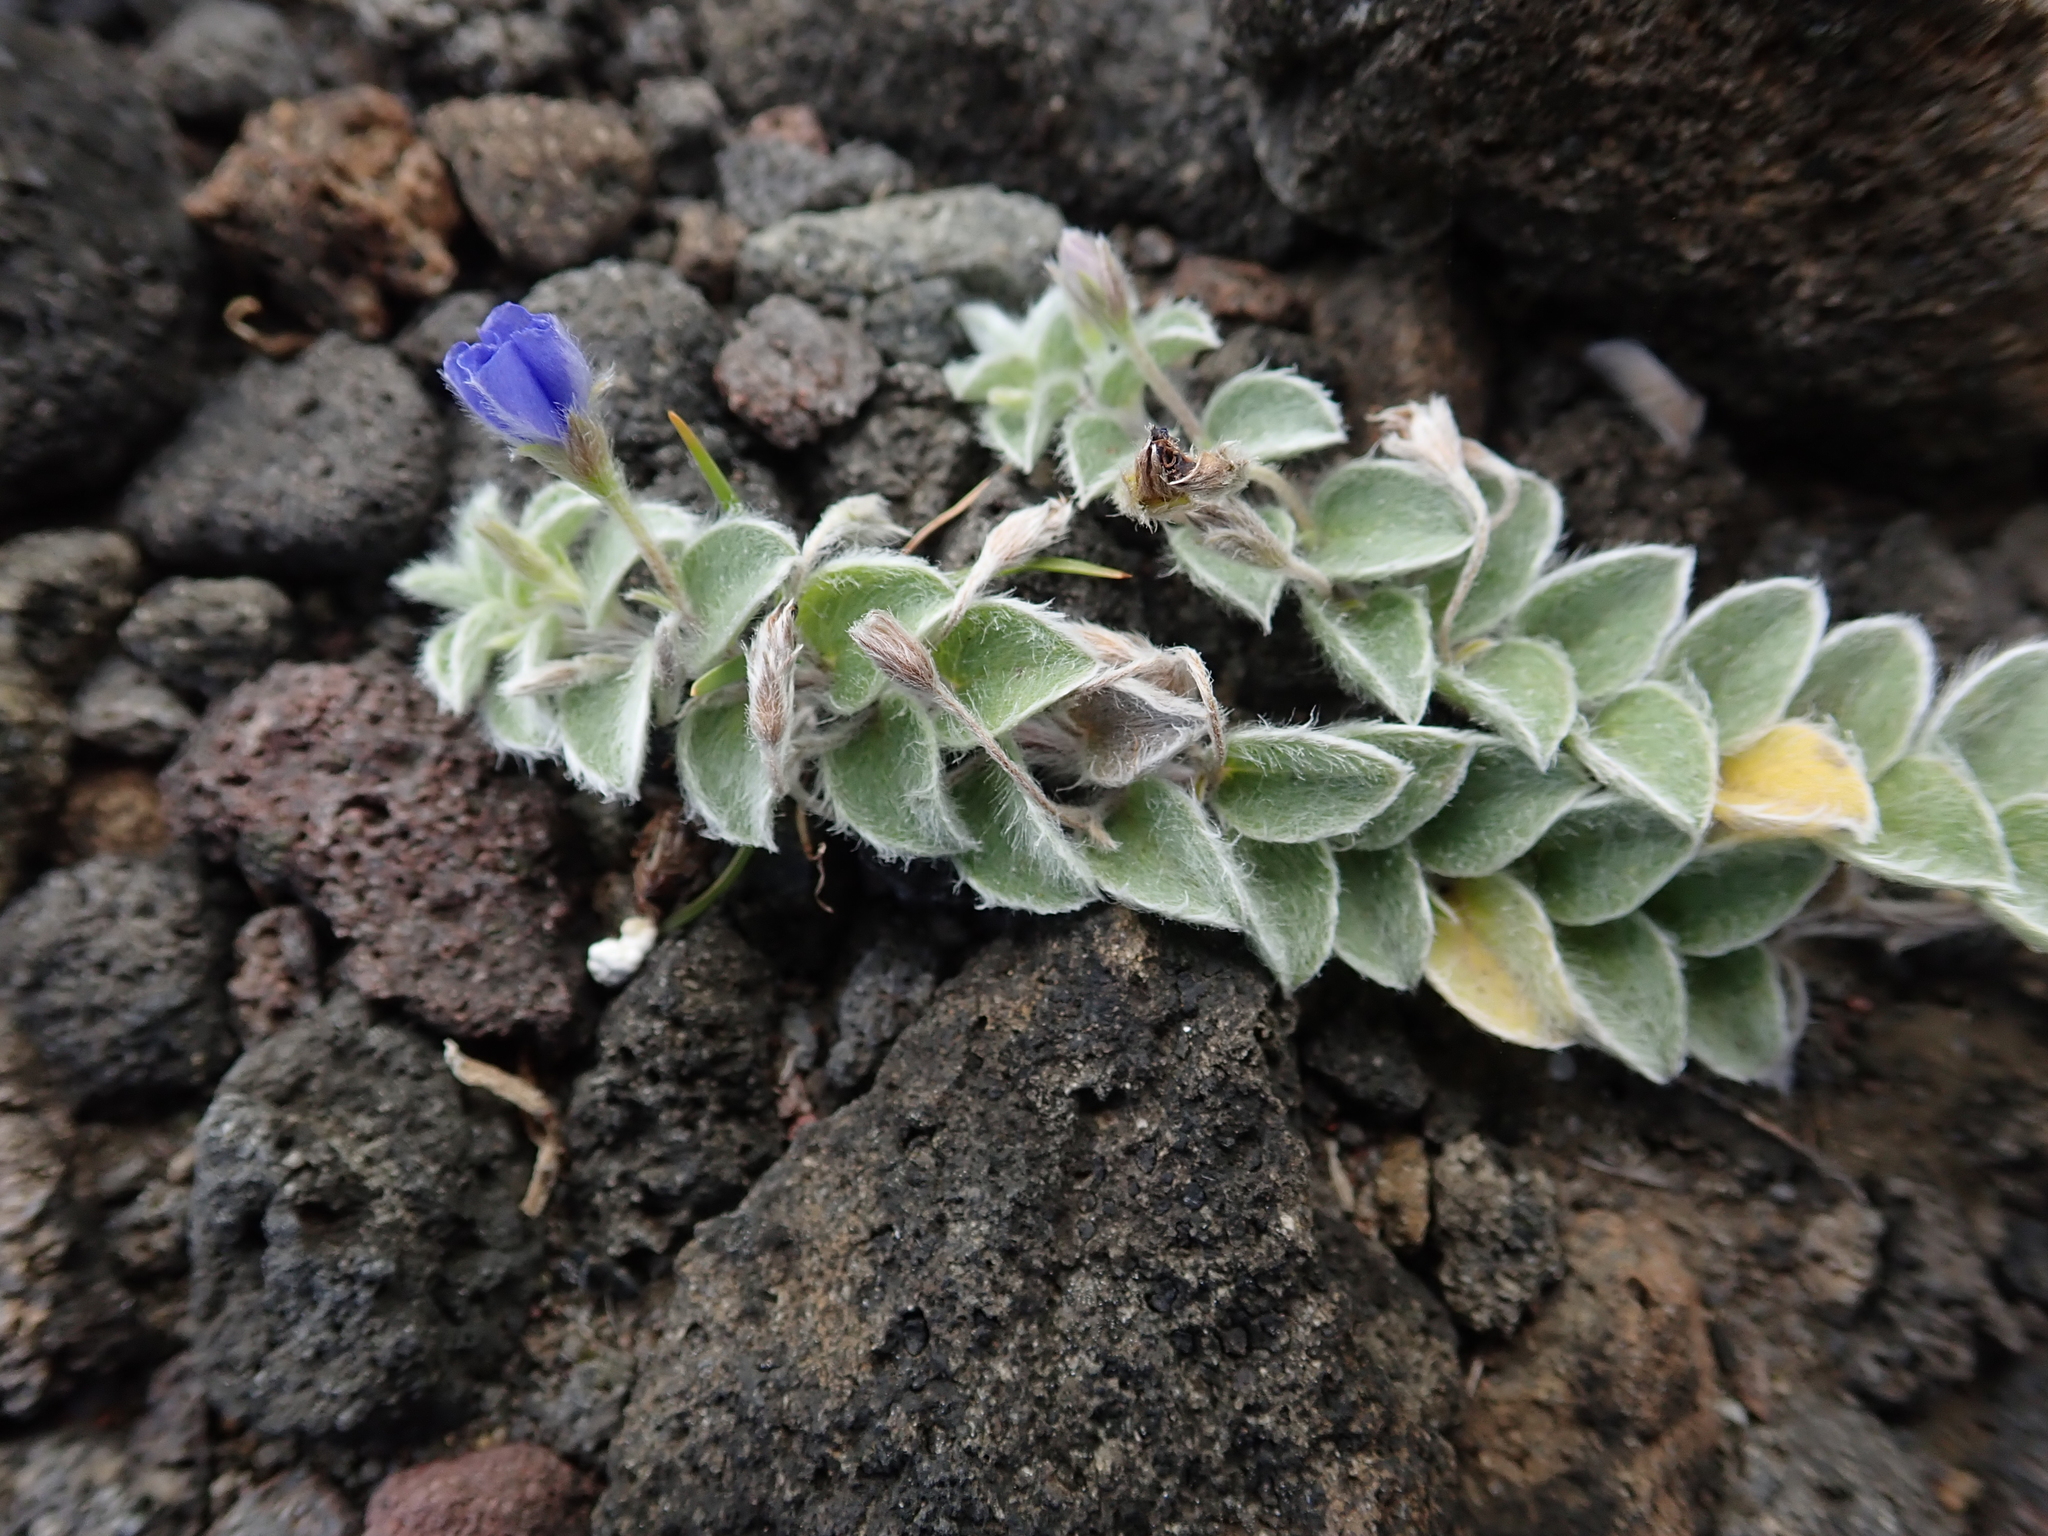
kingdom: Plantae
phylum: Tracheophyta
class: Magnoliopsida
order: Solanales
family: Convolvulaceae
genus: Evolvulus
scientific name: Evolvulus alsinoides
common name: Slender dwarf morning-glory
